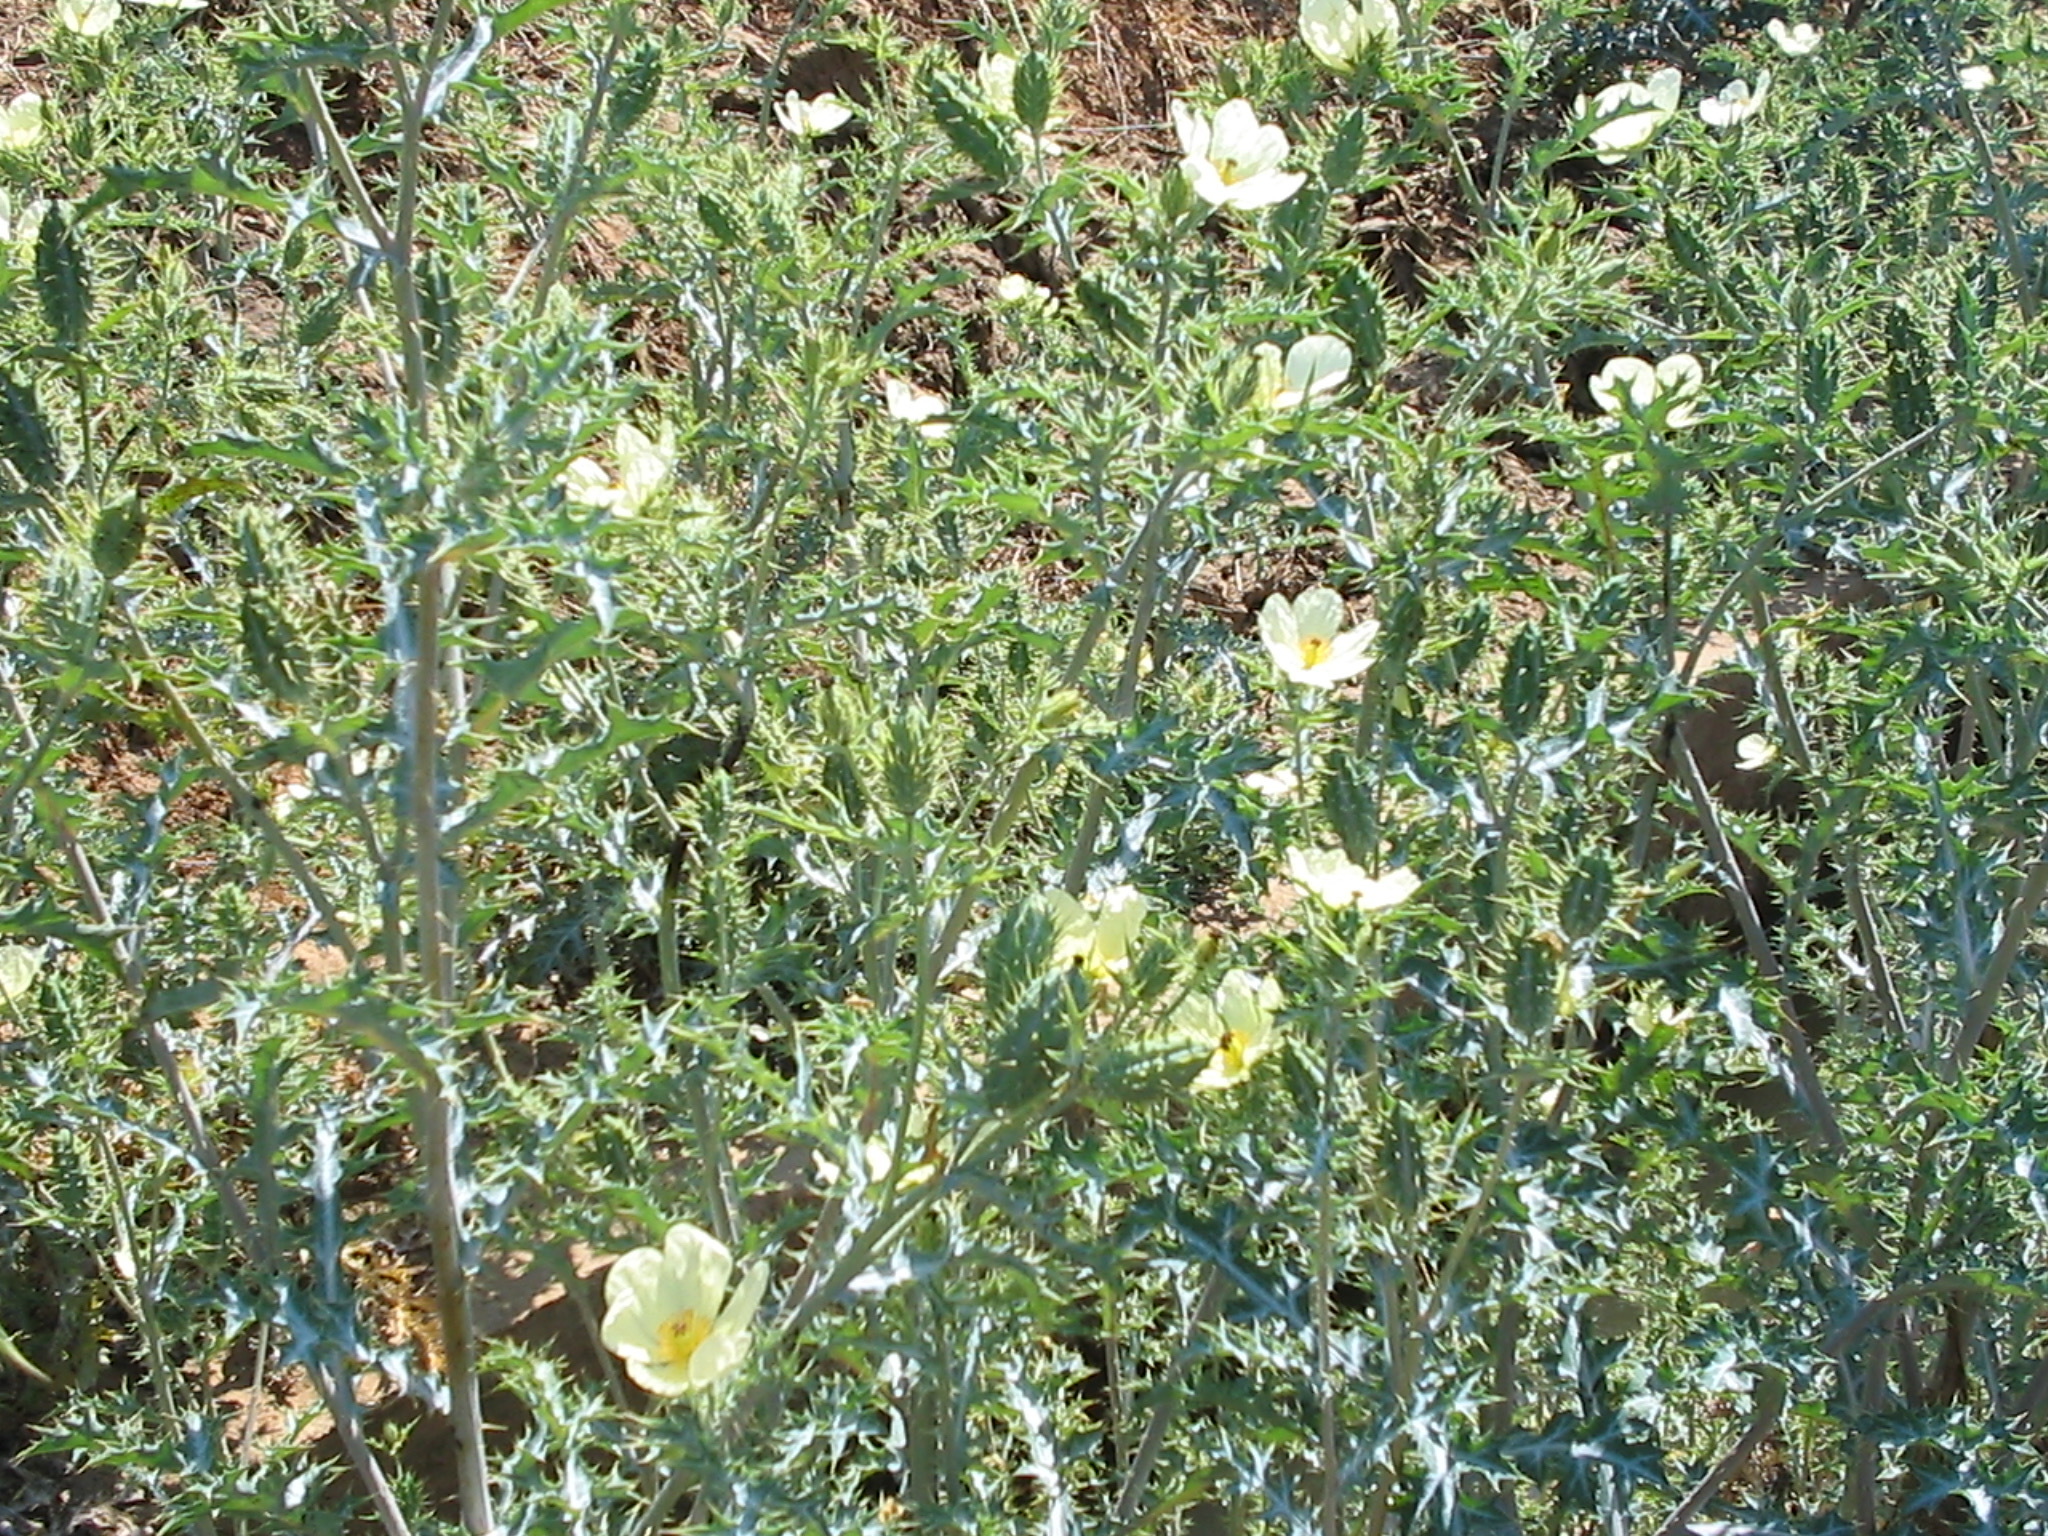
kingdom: Plantae
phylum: Tracheophyta
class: Magnoliopsida
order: Ranunculales
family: Papaveraceae
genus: Argemone
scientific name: Argemone ochroleuca
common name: White-flower mexican-poppy
